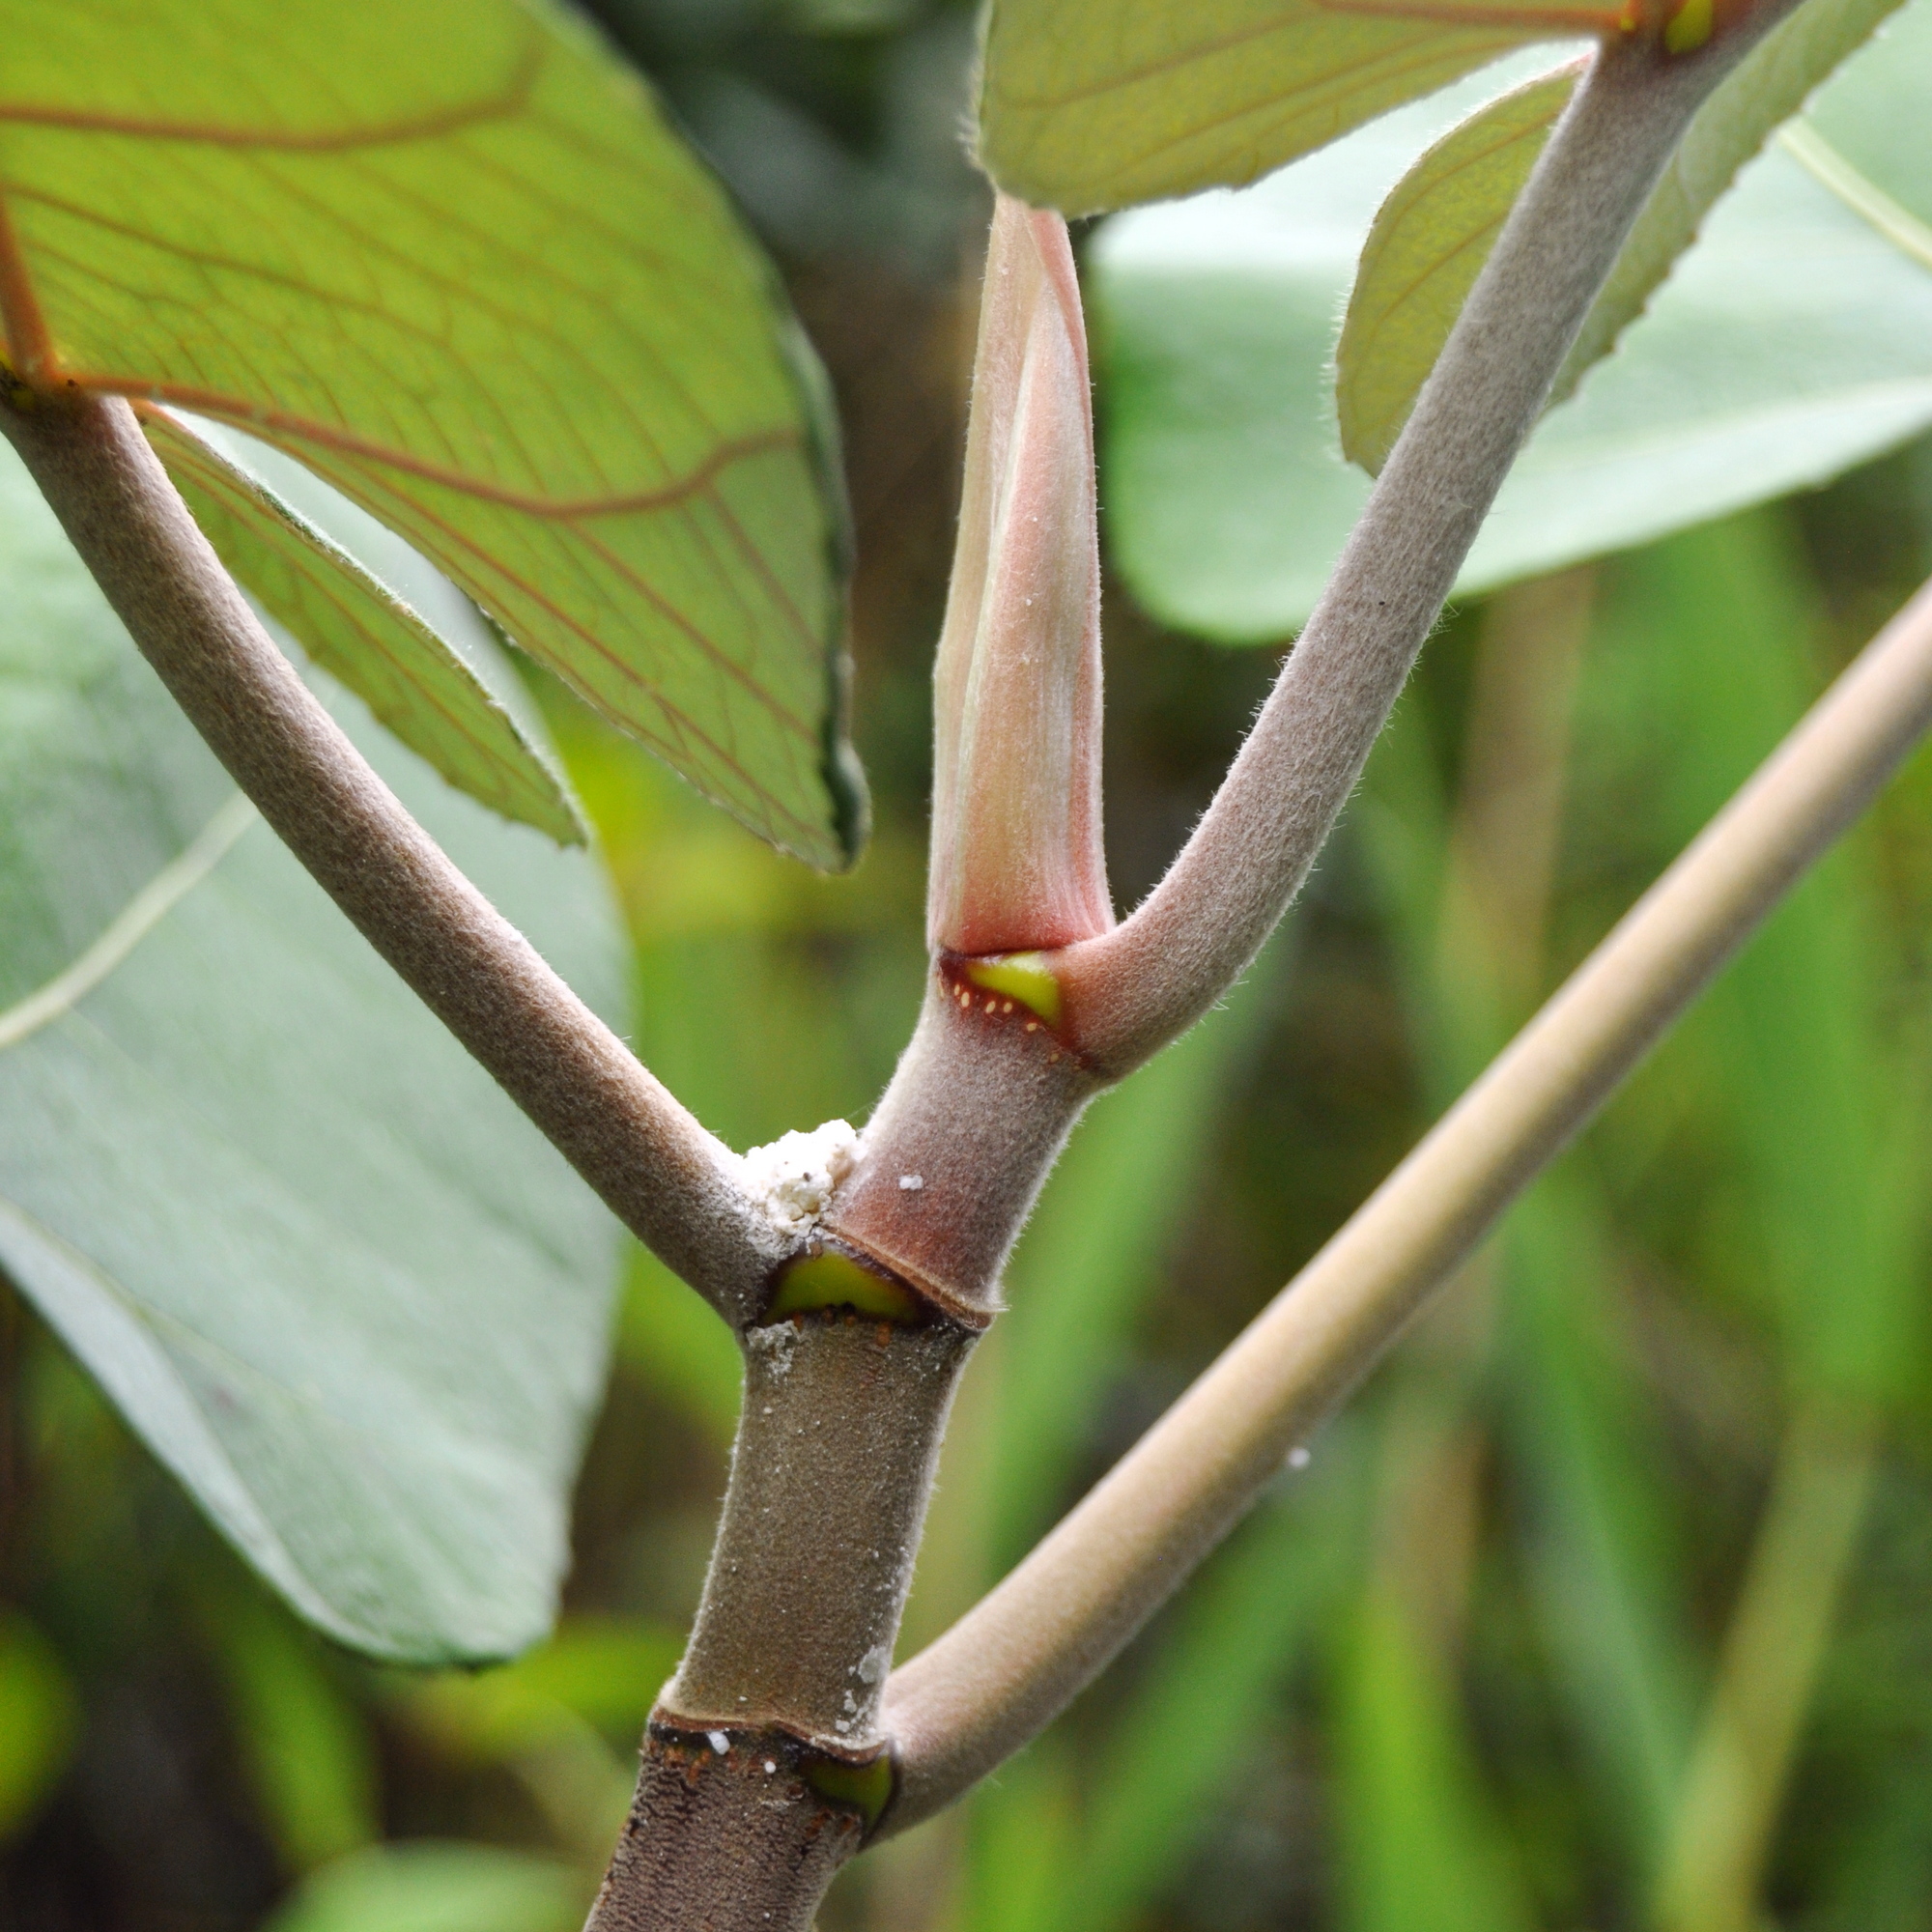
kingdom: Plantae
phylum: Tracheophyta
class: Magnoliopsida
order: Rosales
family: Moraceae
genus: Ficus
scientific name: Ficus padana
